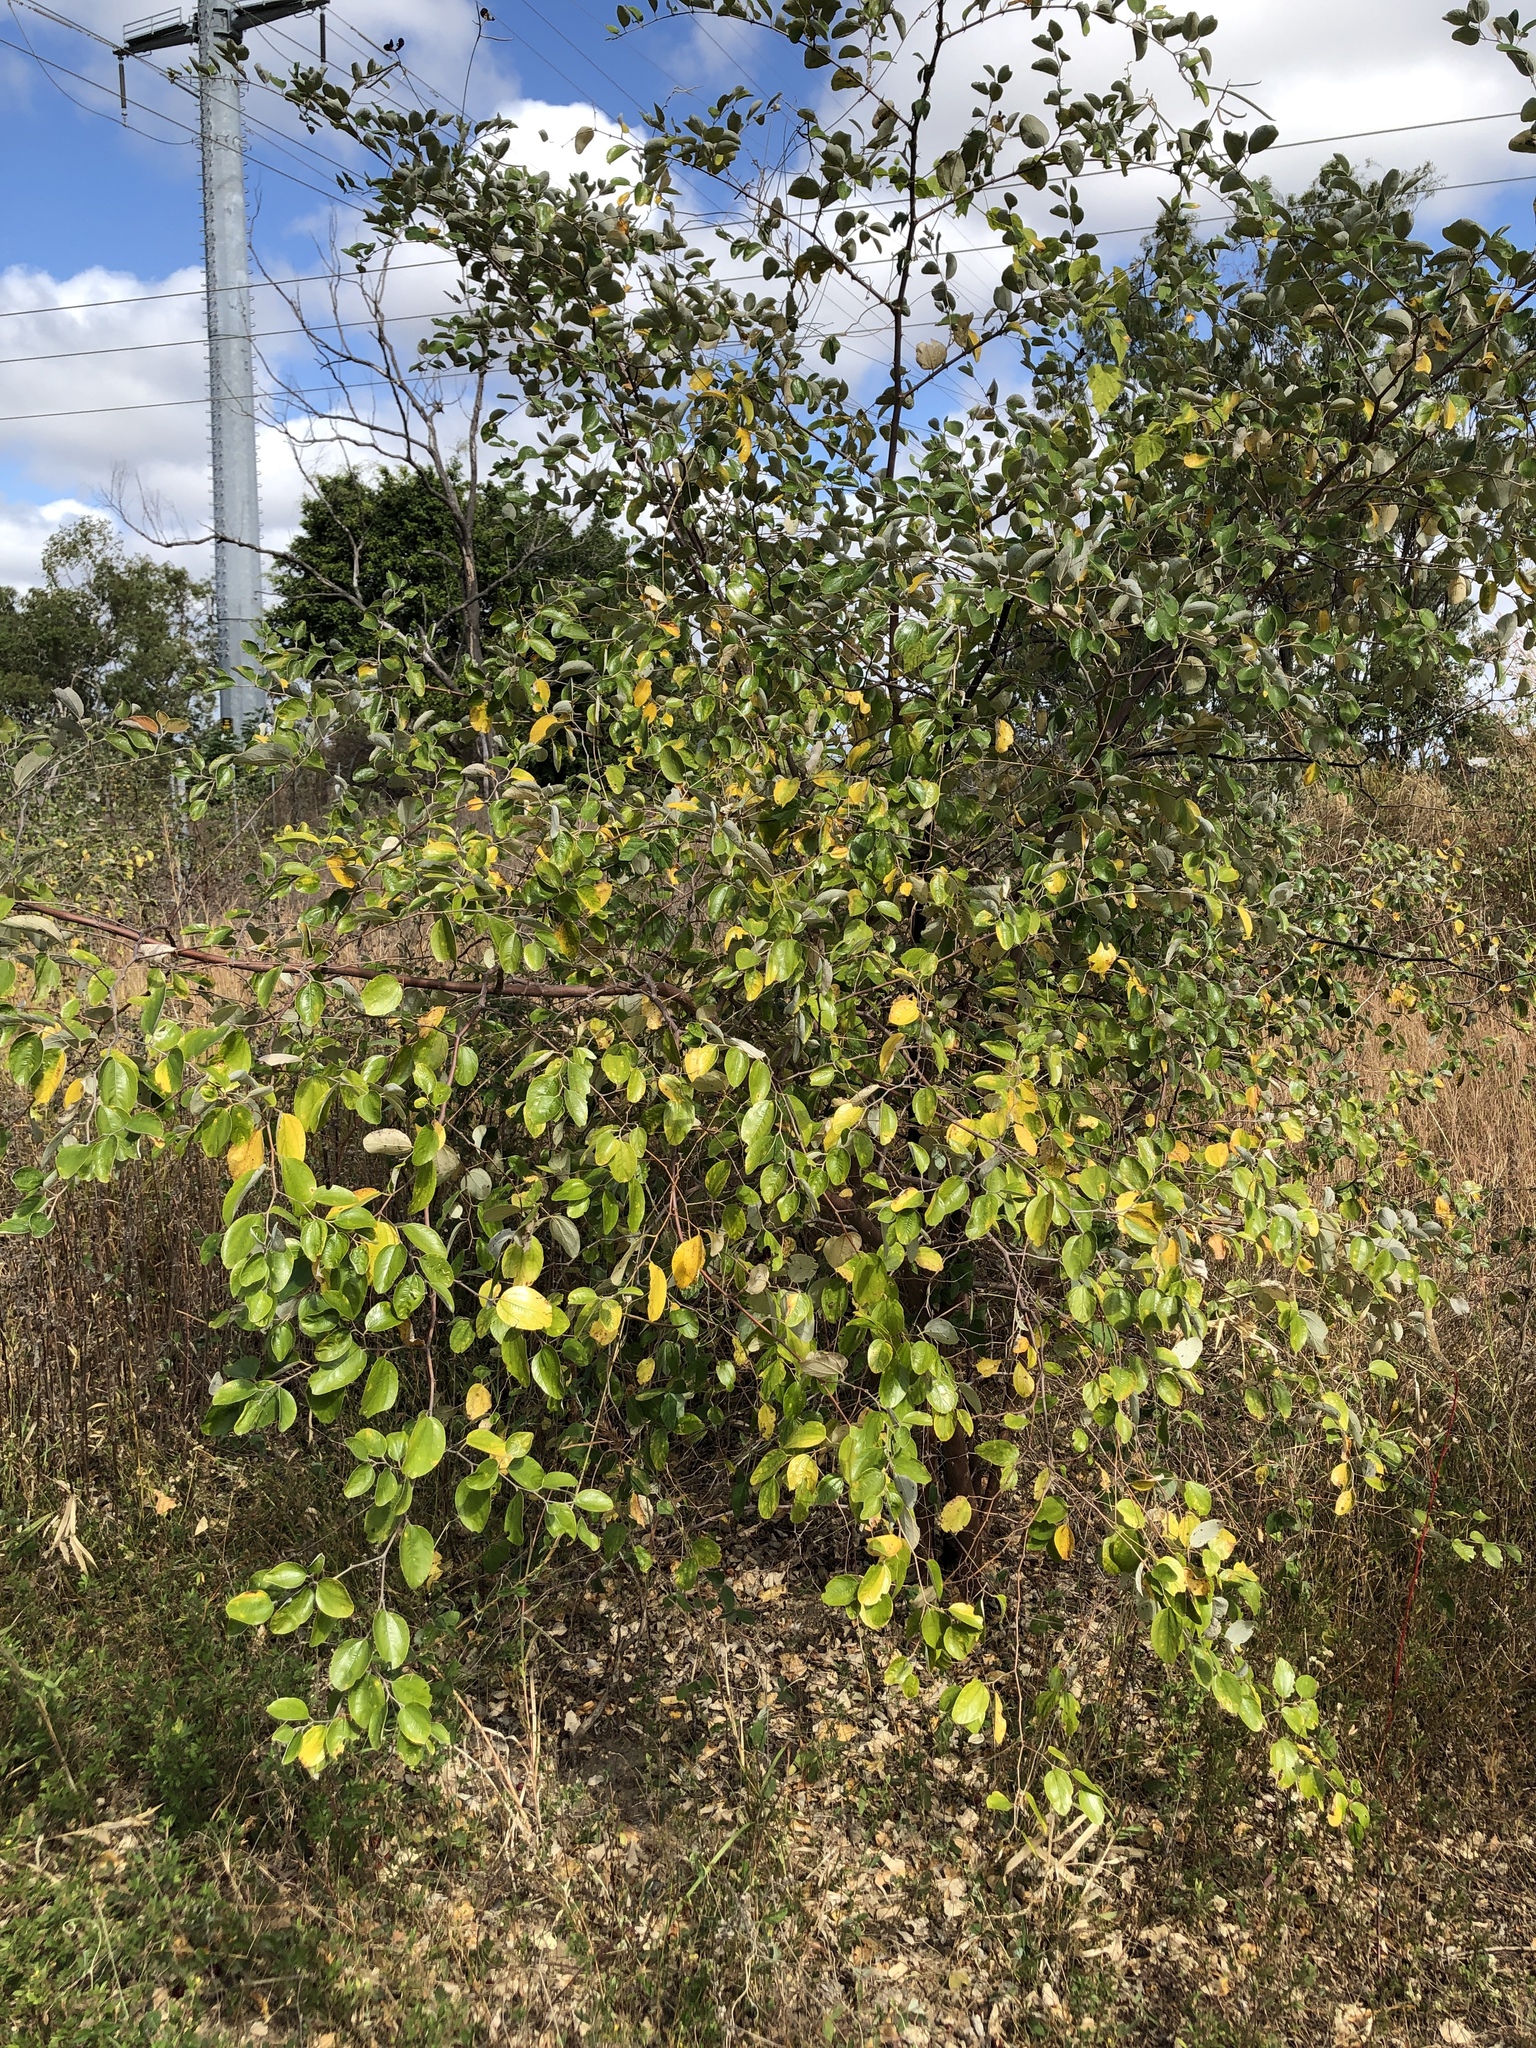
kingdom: Plantae
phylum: Tracheophyta
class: Magnoliopsida
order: Rosales
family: Rhamnaceae
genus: Ziziphus
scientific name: Ziziphus mauritiana
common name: Indian jujube
